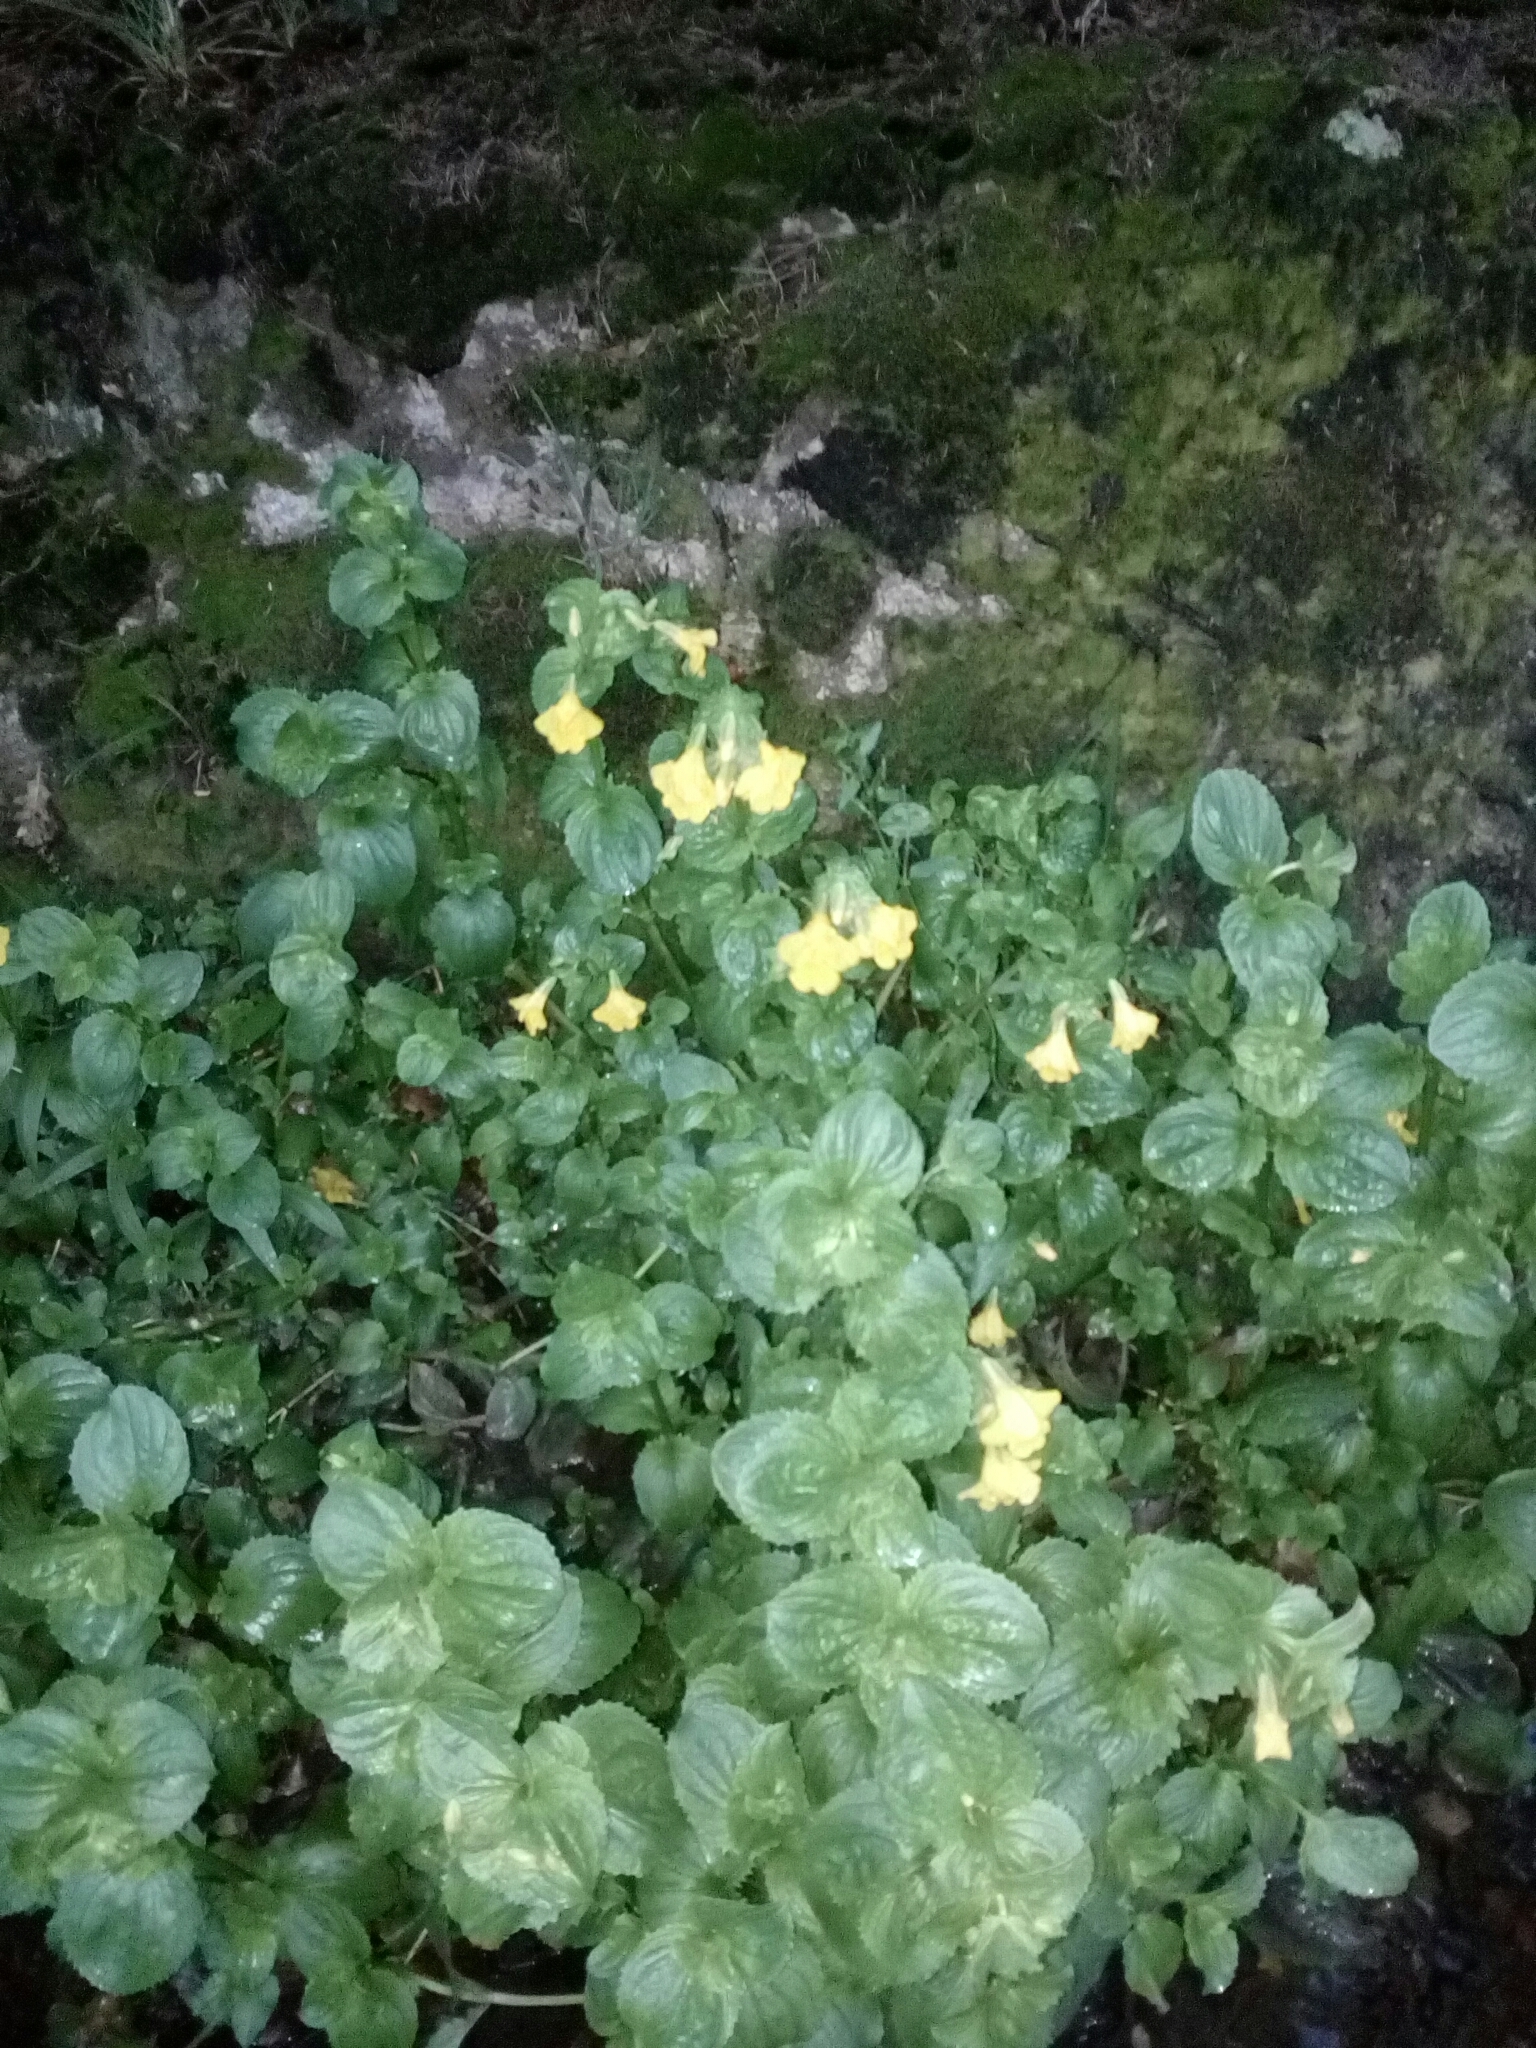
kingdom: Plantae
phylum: Tracheophyta
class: Magnoliopsida
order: Lamiales
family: Phrymaceae
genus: Erythranthe
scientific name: Erythranthe guttata
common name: Monkeyflower
